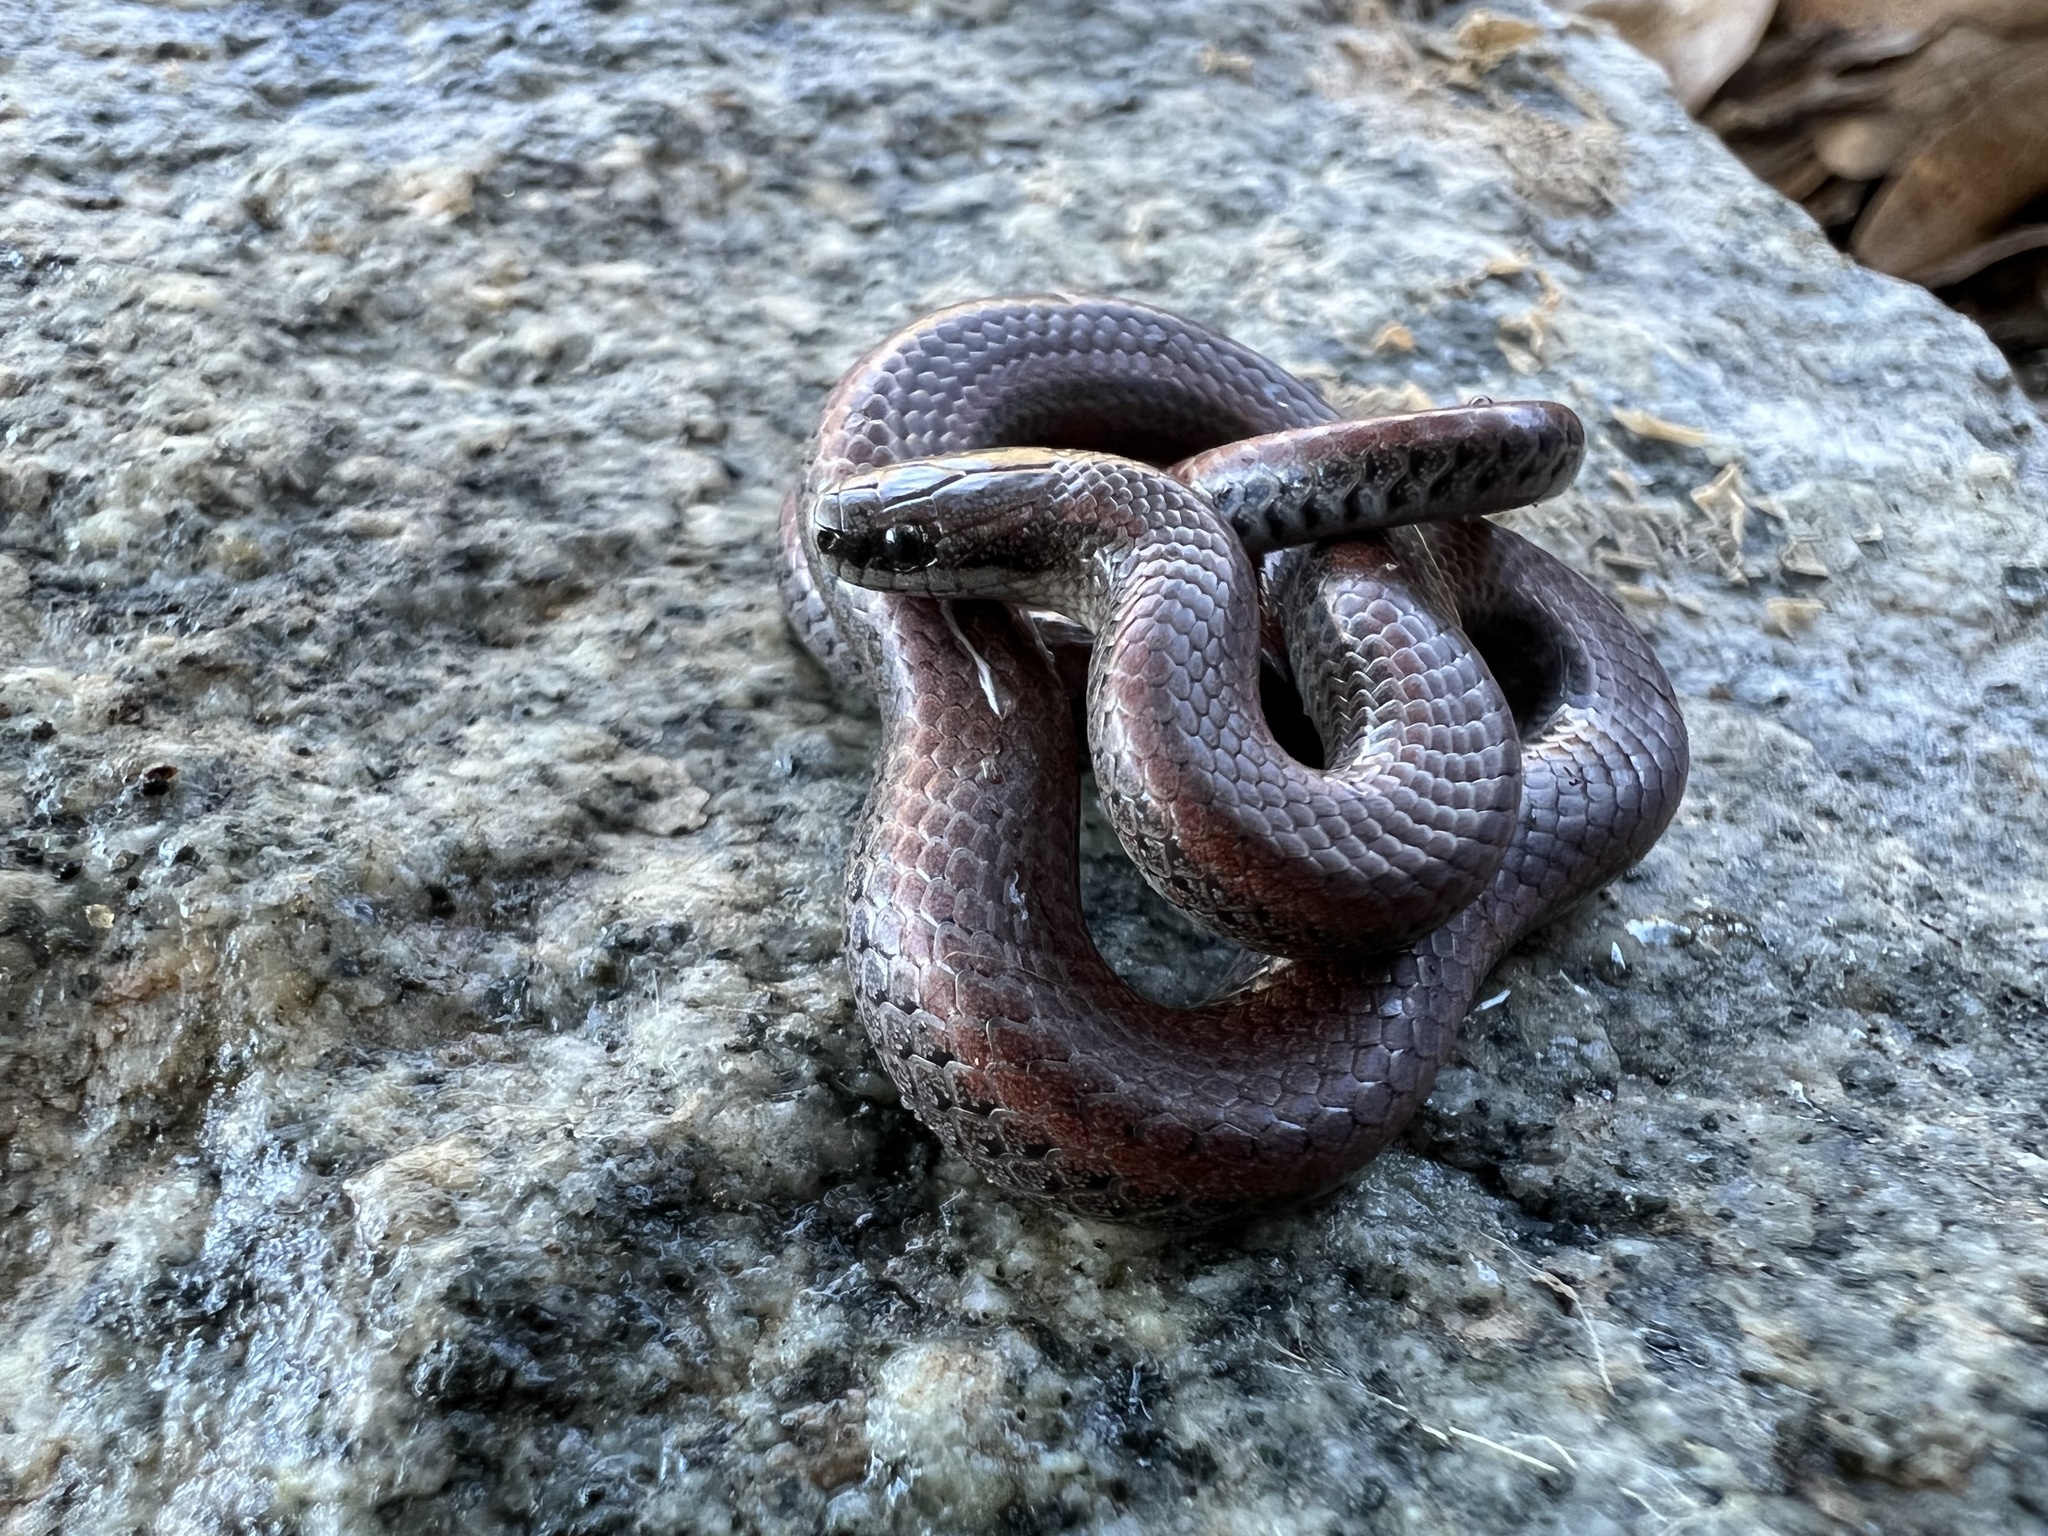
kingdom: Animalia
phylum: Chordata
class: Squamata
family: Colubridae
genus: Contia
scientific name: Contia tenuis
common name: Sharptail snake
